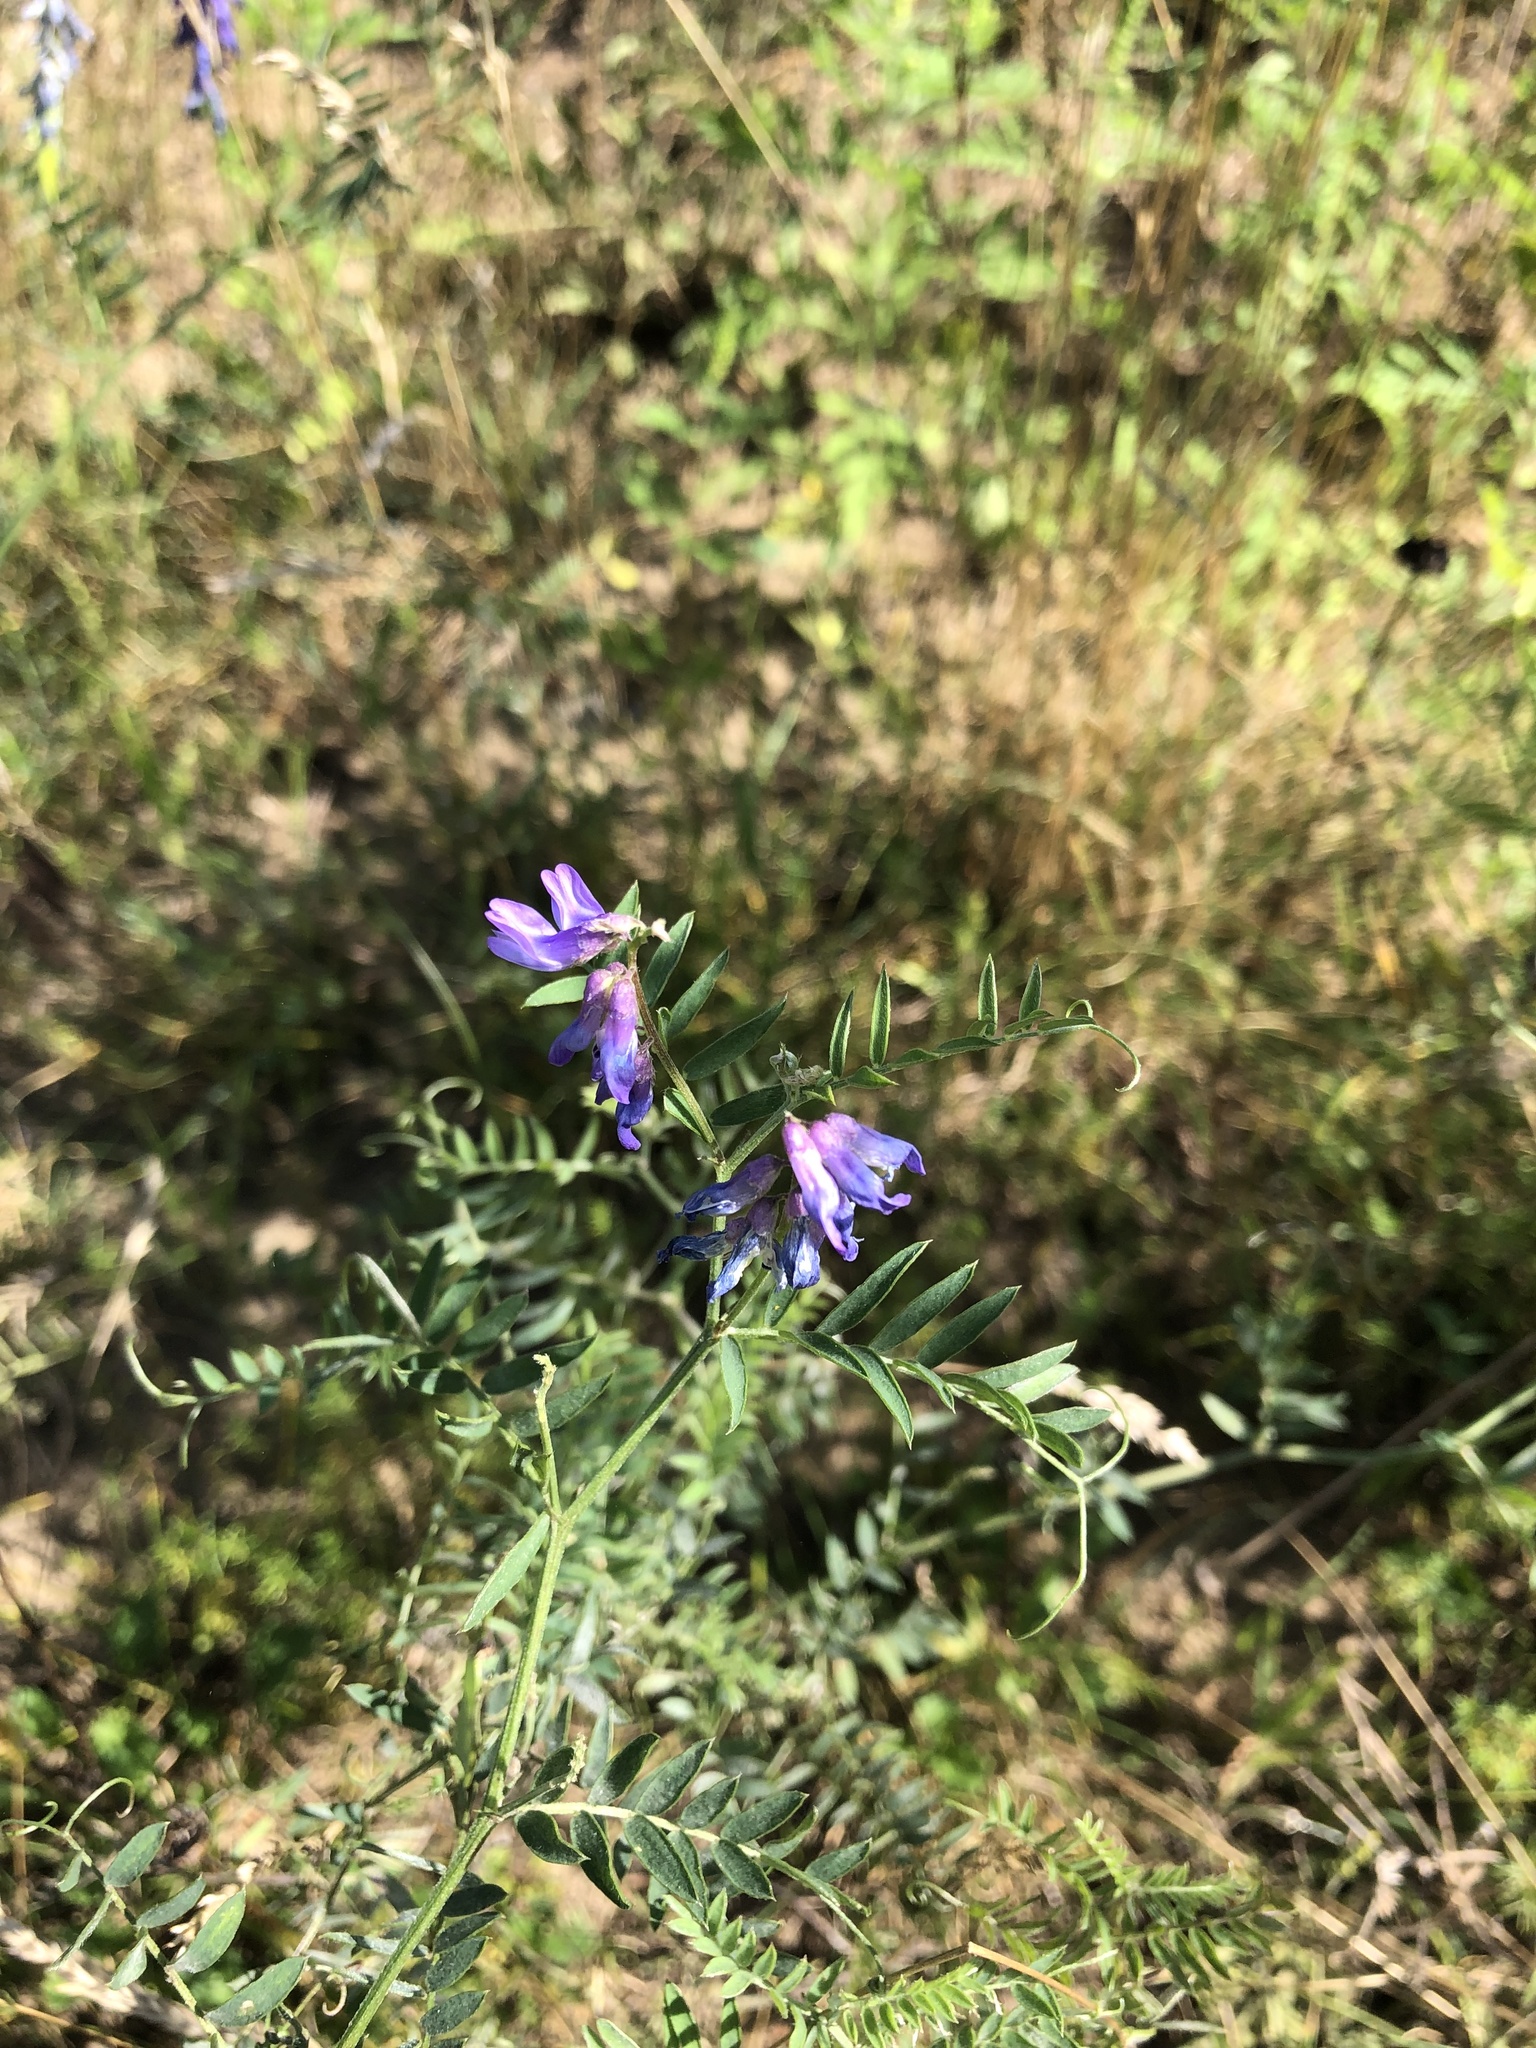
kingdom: Plantae
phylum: Tracheophyta
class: Magnoliopsida
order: Fabales
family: Fabaceae
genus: Vicia
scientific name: Vicia cracca
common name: Bird vetch
